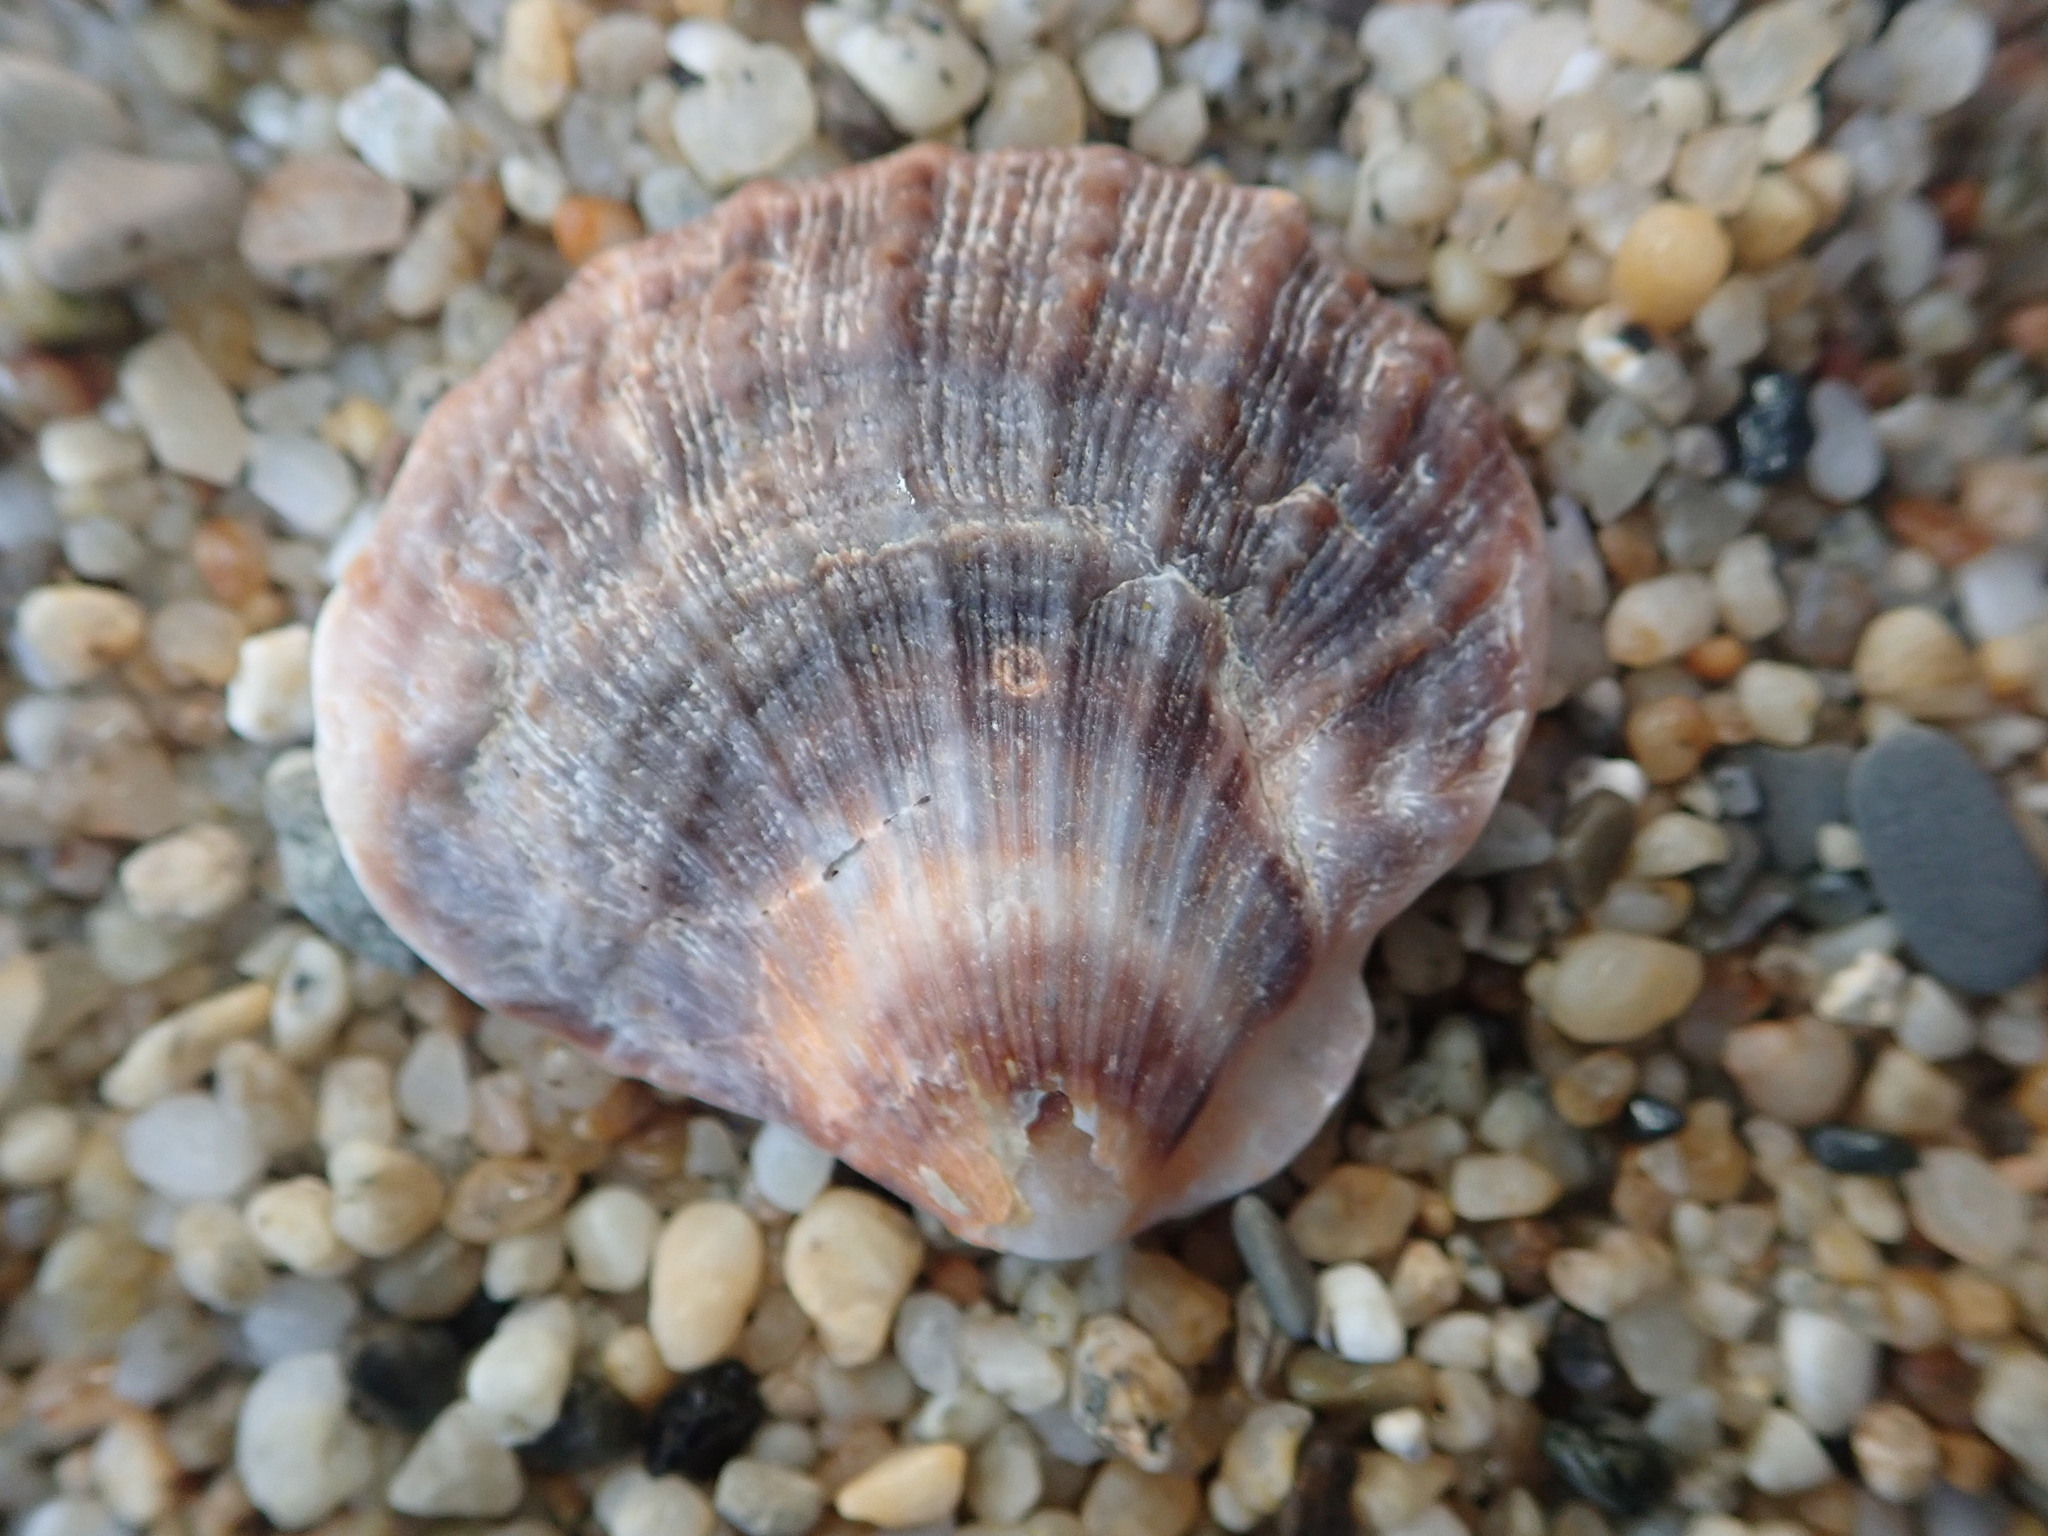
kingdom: Animalia
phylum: Mollusca
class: Bivalvia
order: Pectinida
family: Pectinidae
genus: Crassadoma
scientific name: Crassadoma gigantea
